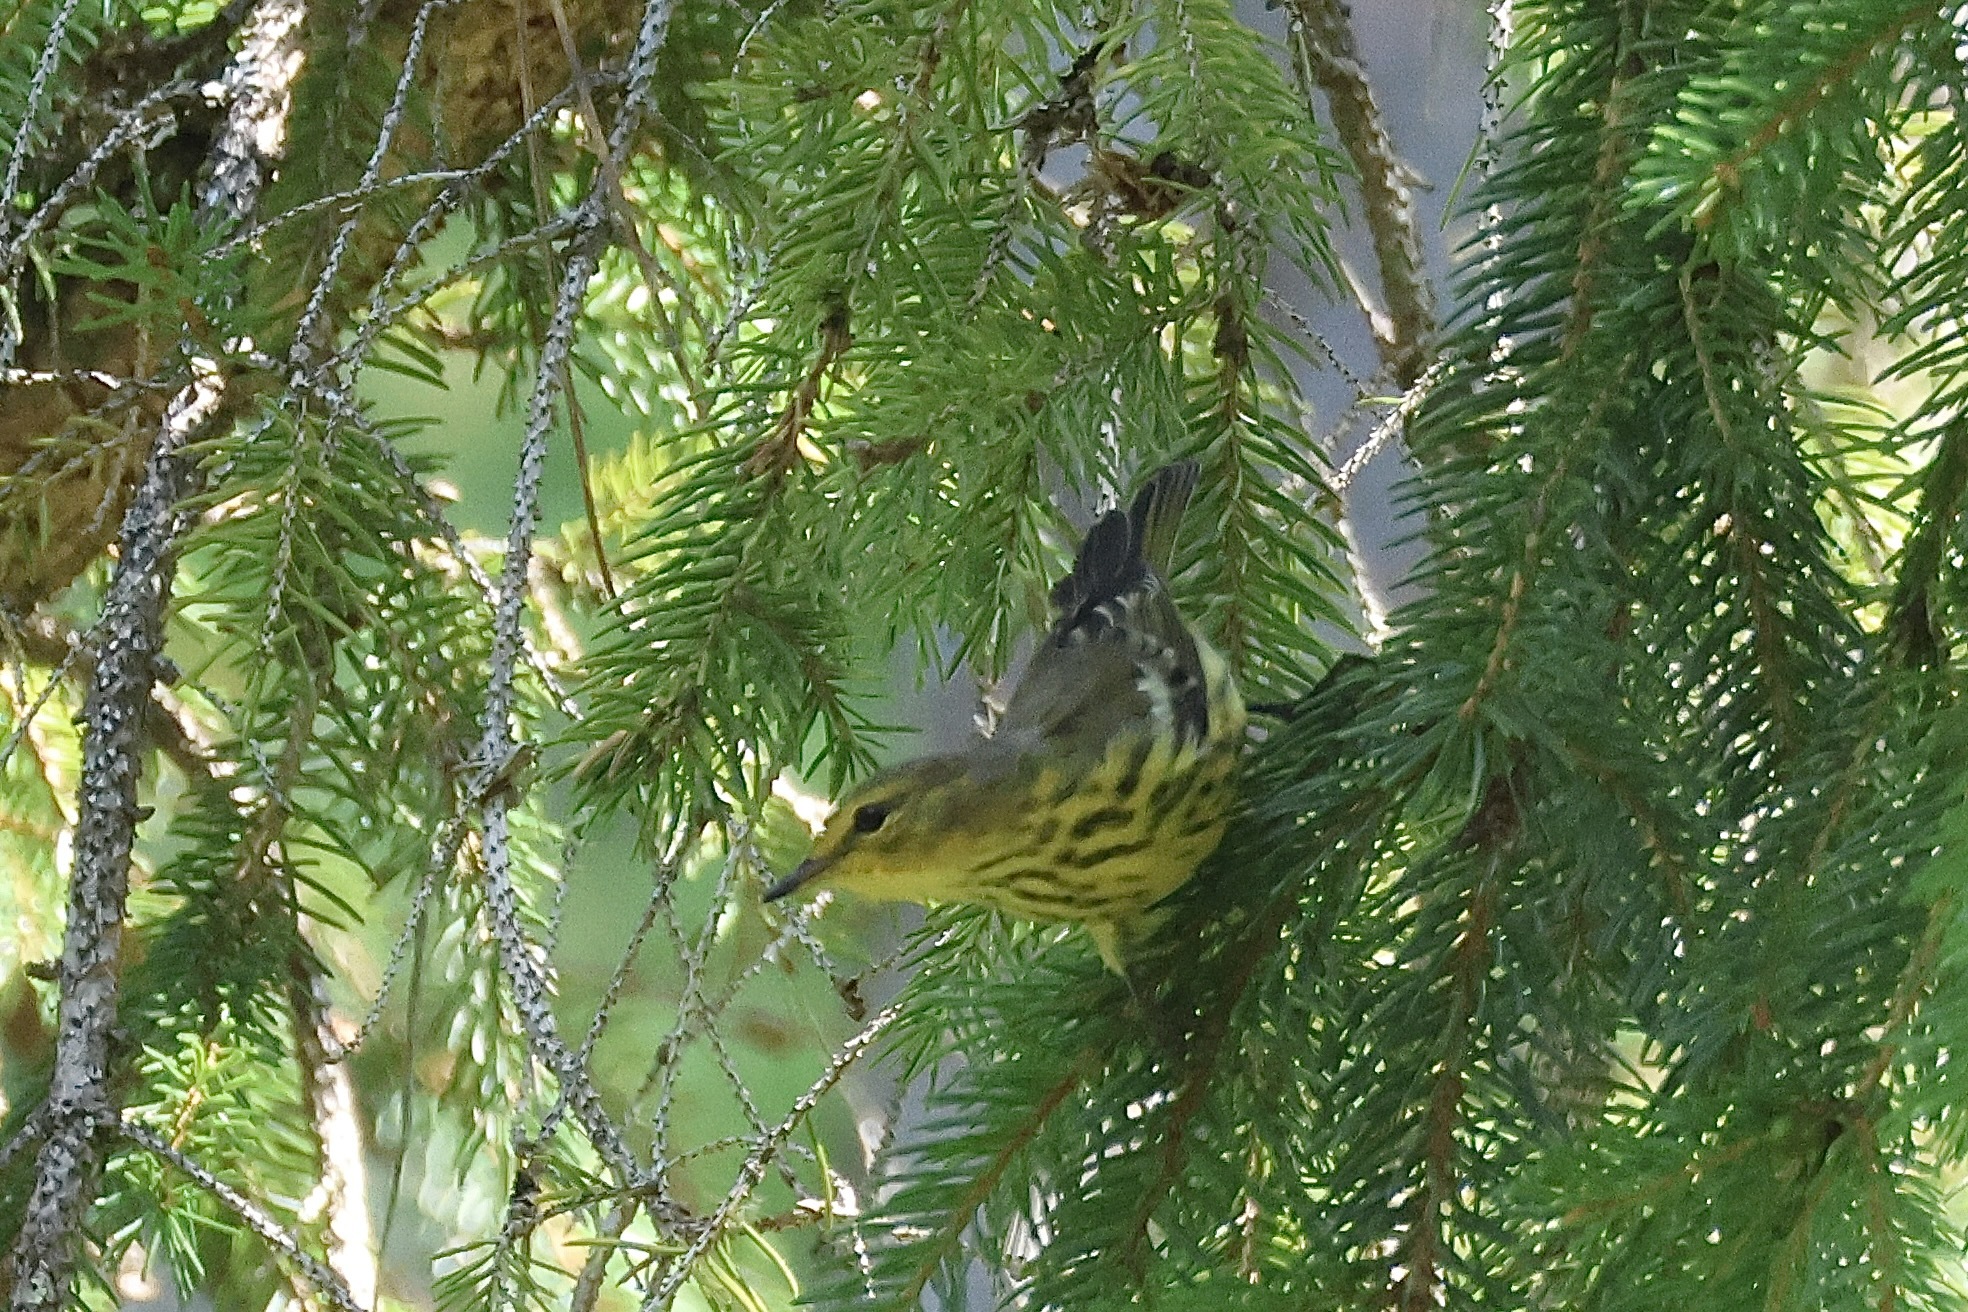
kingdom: Animalia
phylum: Chordata
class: Aves
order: Passeriformes
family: Parulidae
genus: Setophaga
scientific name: Setophaga tigrina
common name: Cape may warbler
